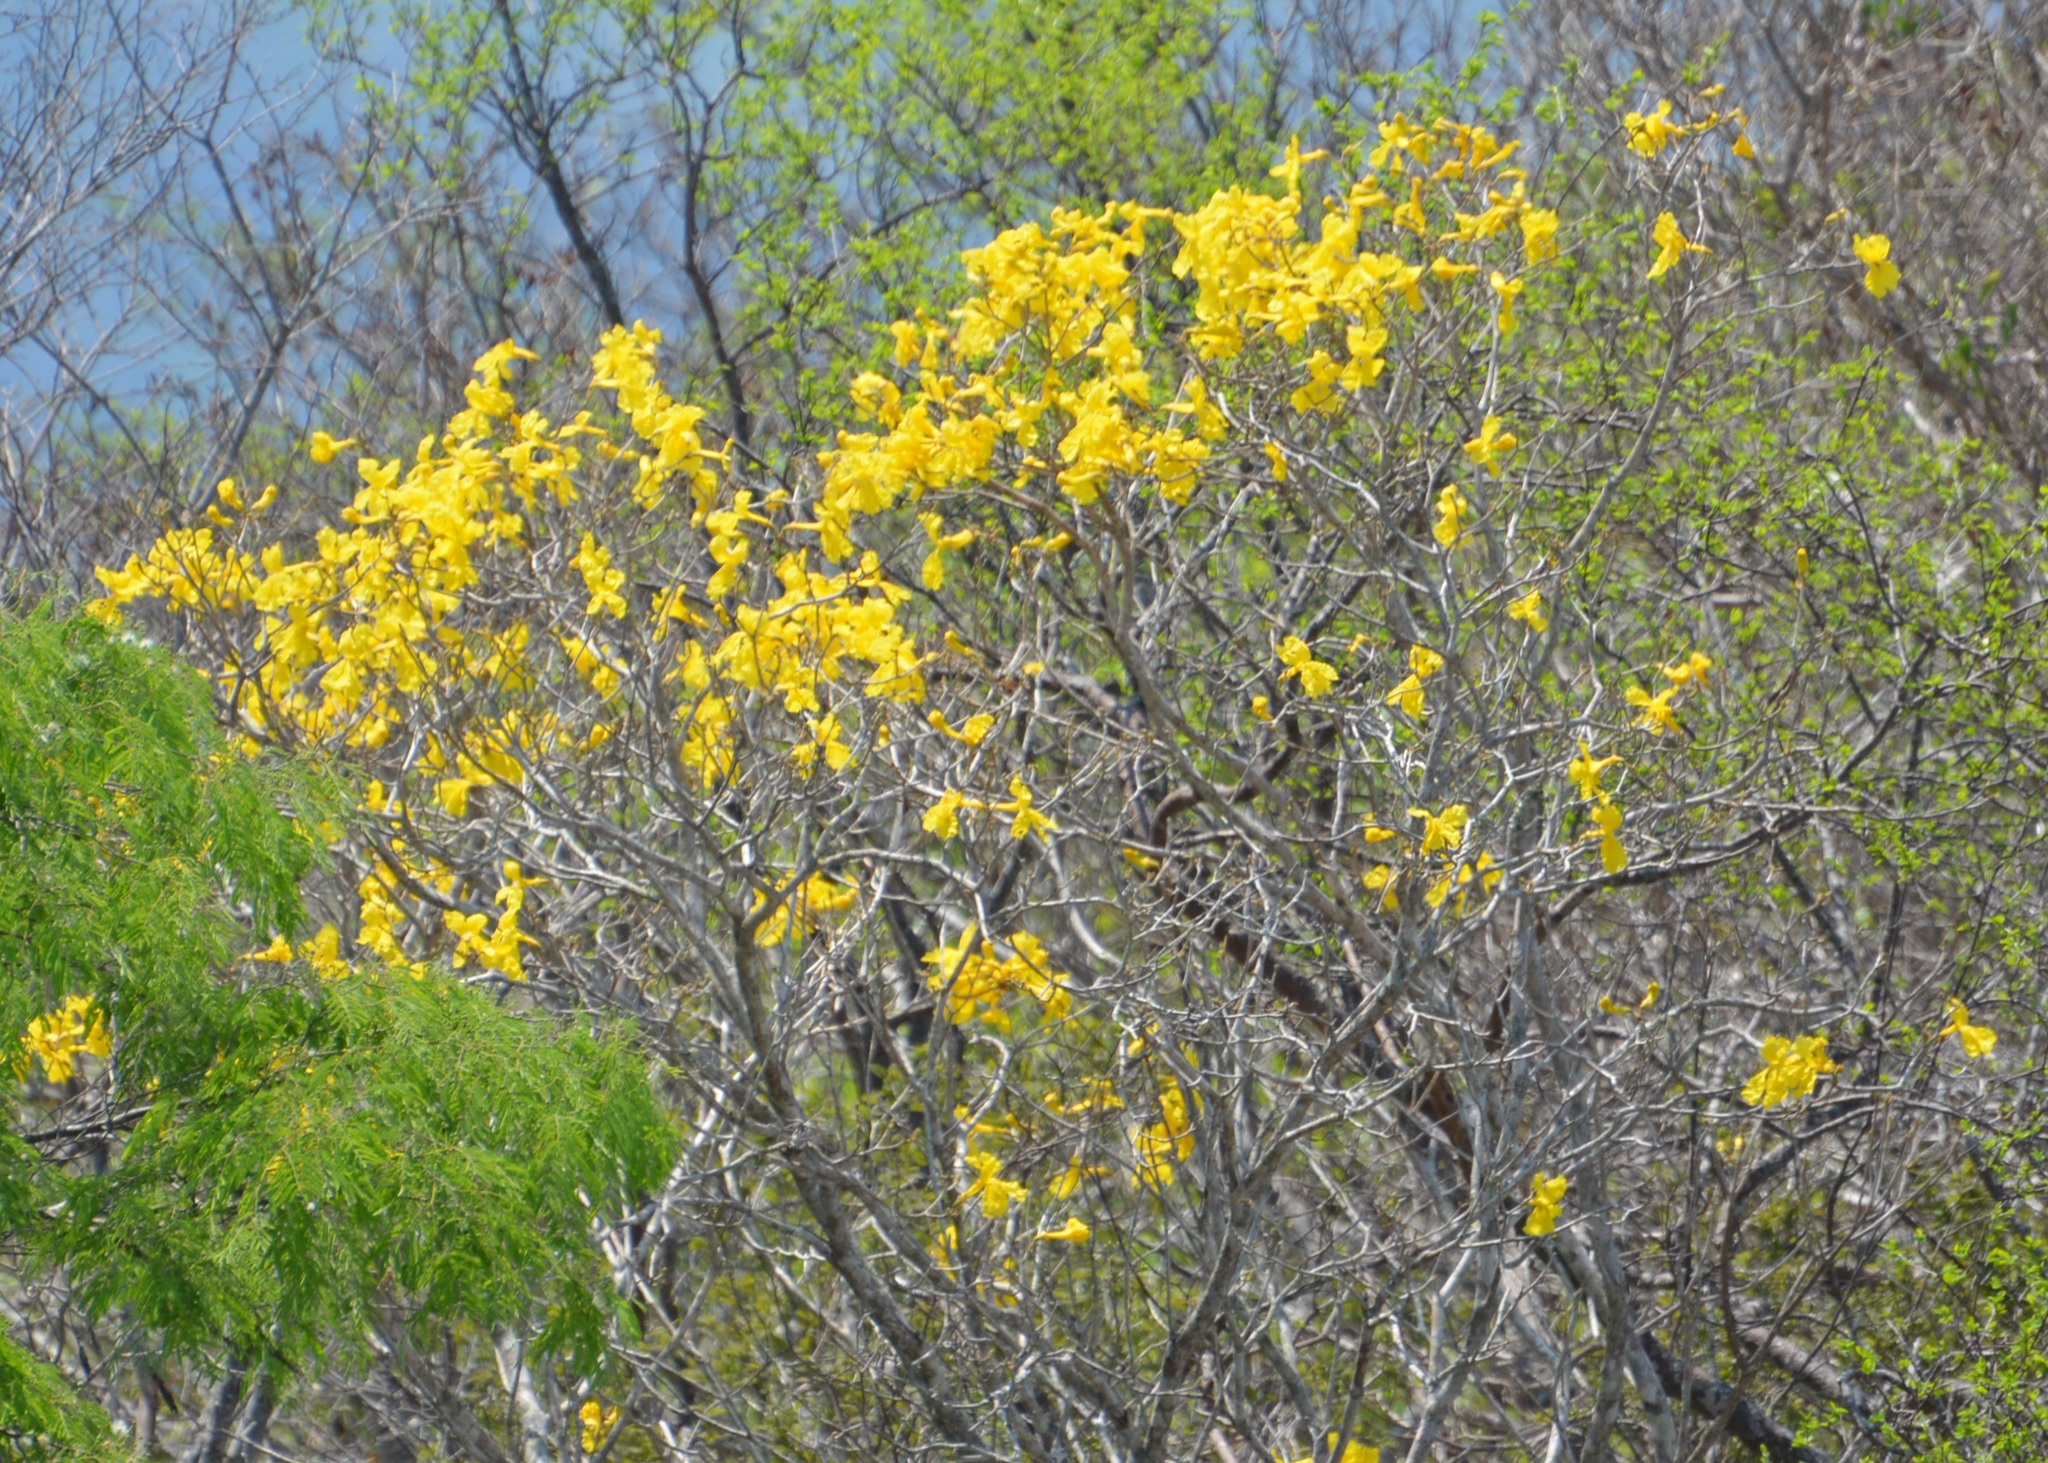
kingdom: Plantae
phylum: Tracheophyta
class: Magnoliopsida
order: Lamiales
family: Bignoniaceae
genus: Handroanthus
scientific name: Handroanthus chrysanthus
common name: Trumpet trees
